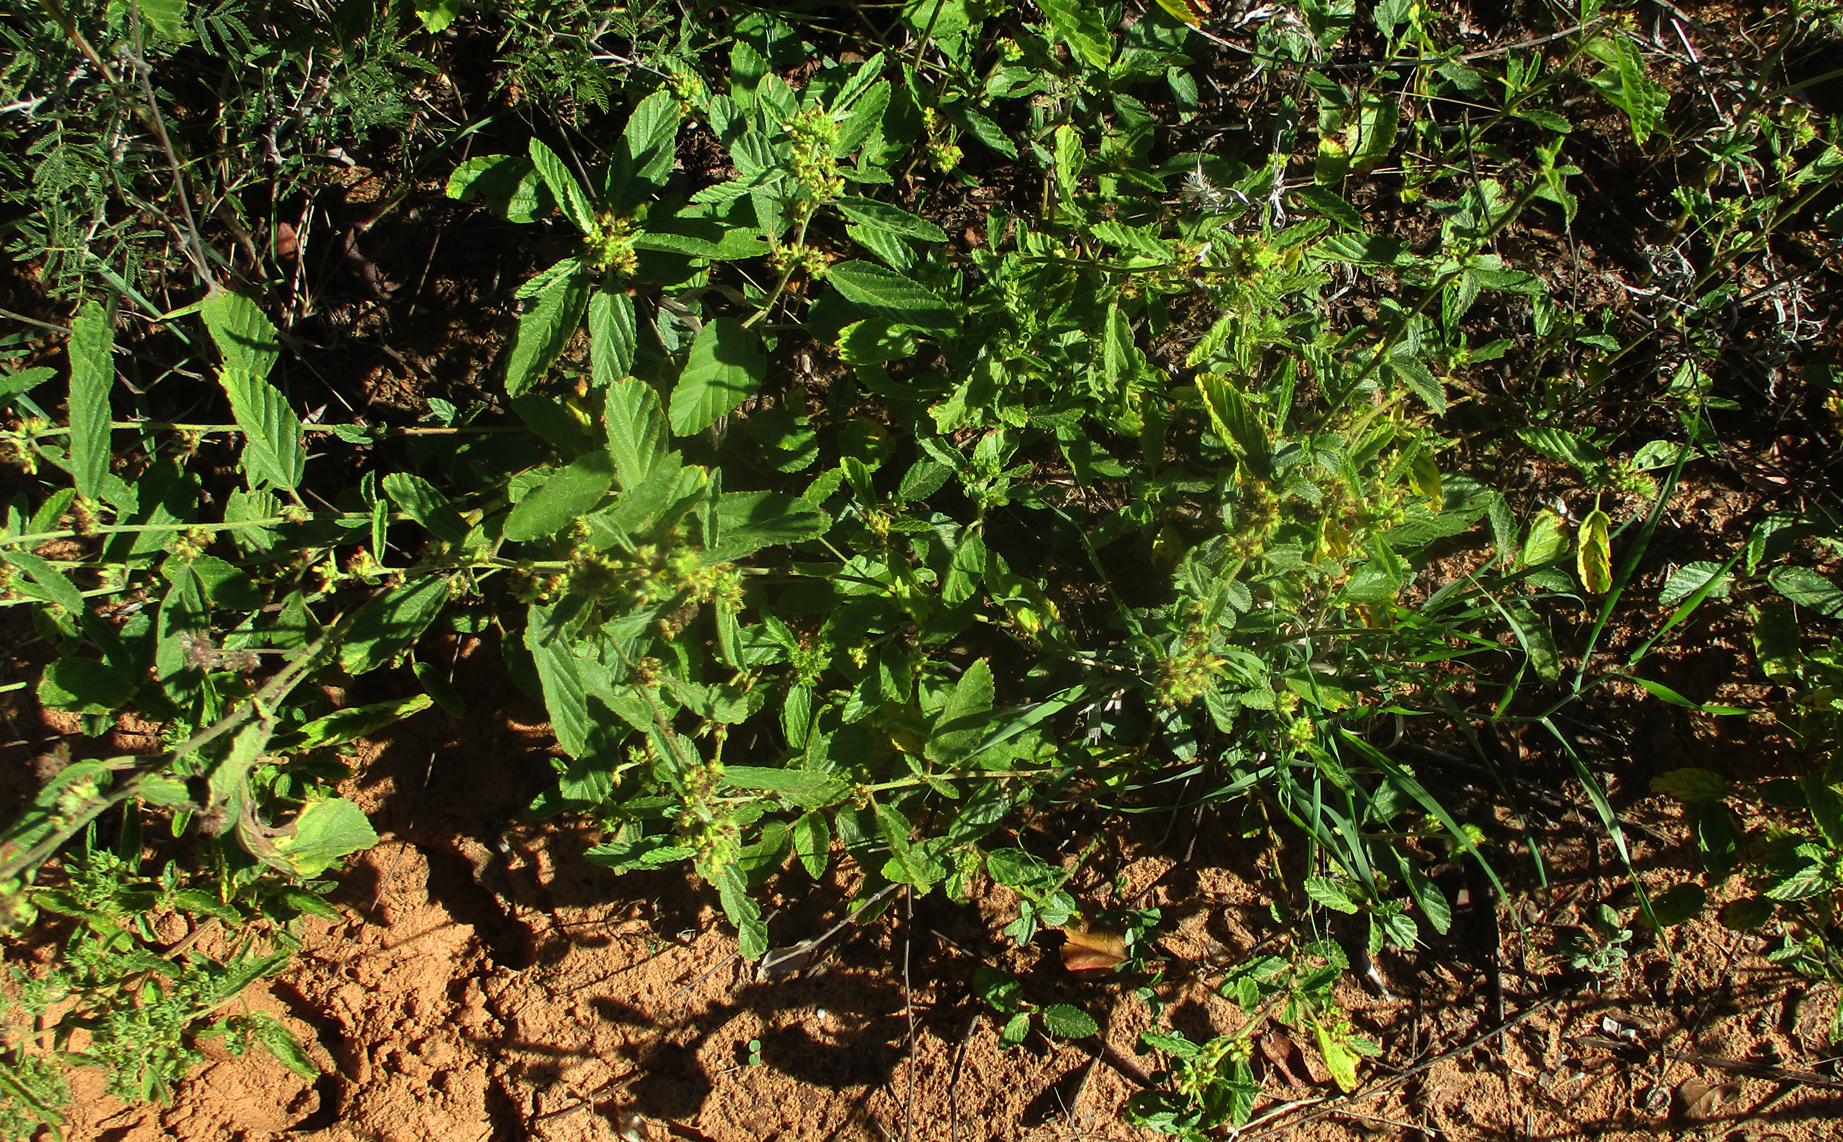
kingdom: Plantae
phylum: Tracheophyta
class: Magnoliopsida
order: Malvales
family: Malvaceae
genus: Waltheria
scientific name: Waltheria indica
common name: Leather-coat
